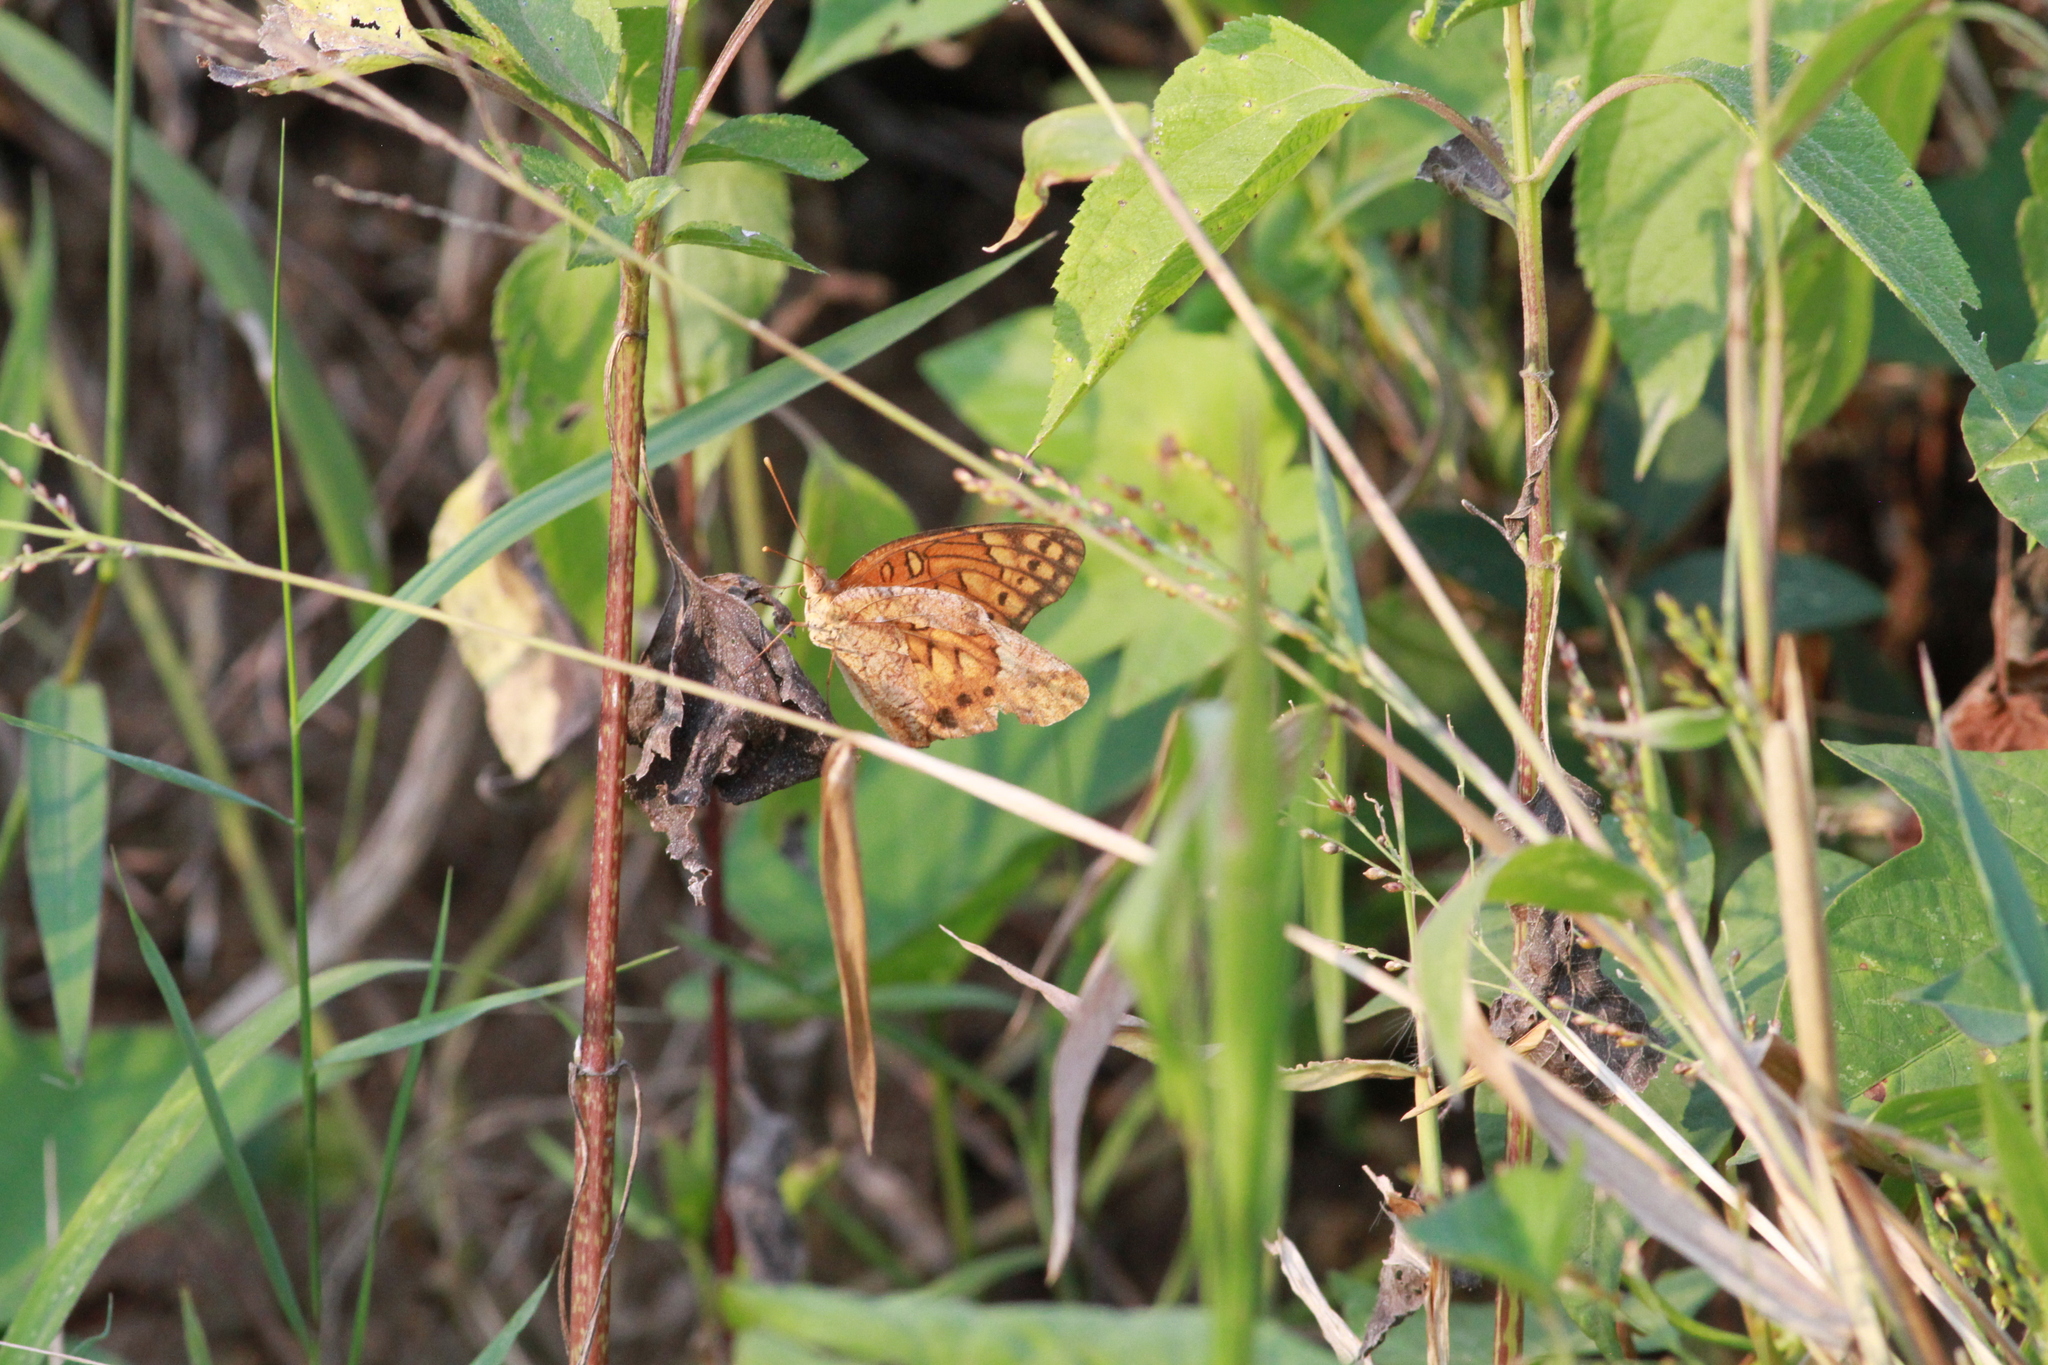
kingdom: Animalia
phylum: Arthropoda
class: Insecta
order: Lepidoptera
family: Nymphalidae
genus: Euptoieta
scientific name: Euptoieta hegesia
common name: Mexican fritillary
